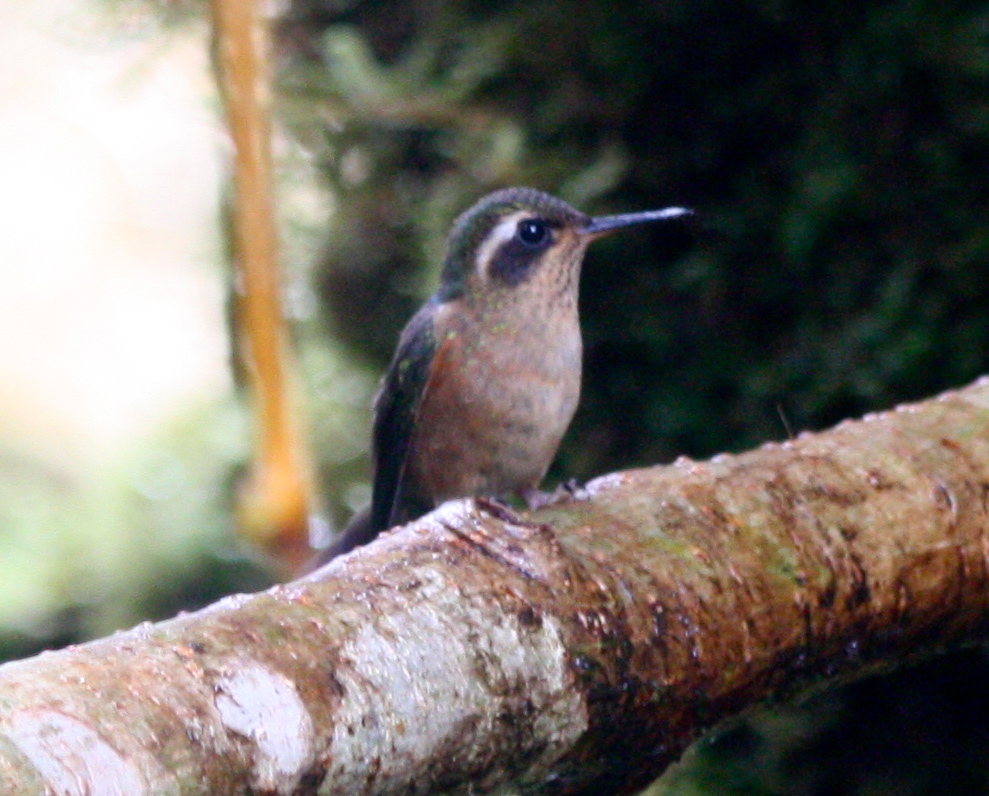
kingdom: Animalia
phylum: Chordata
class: Aves
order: Apodiformes
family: Trochilidae
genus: Adelomyia
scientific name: Adelomyia melanogenys
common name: Speckled hummingbird
